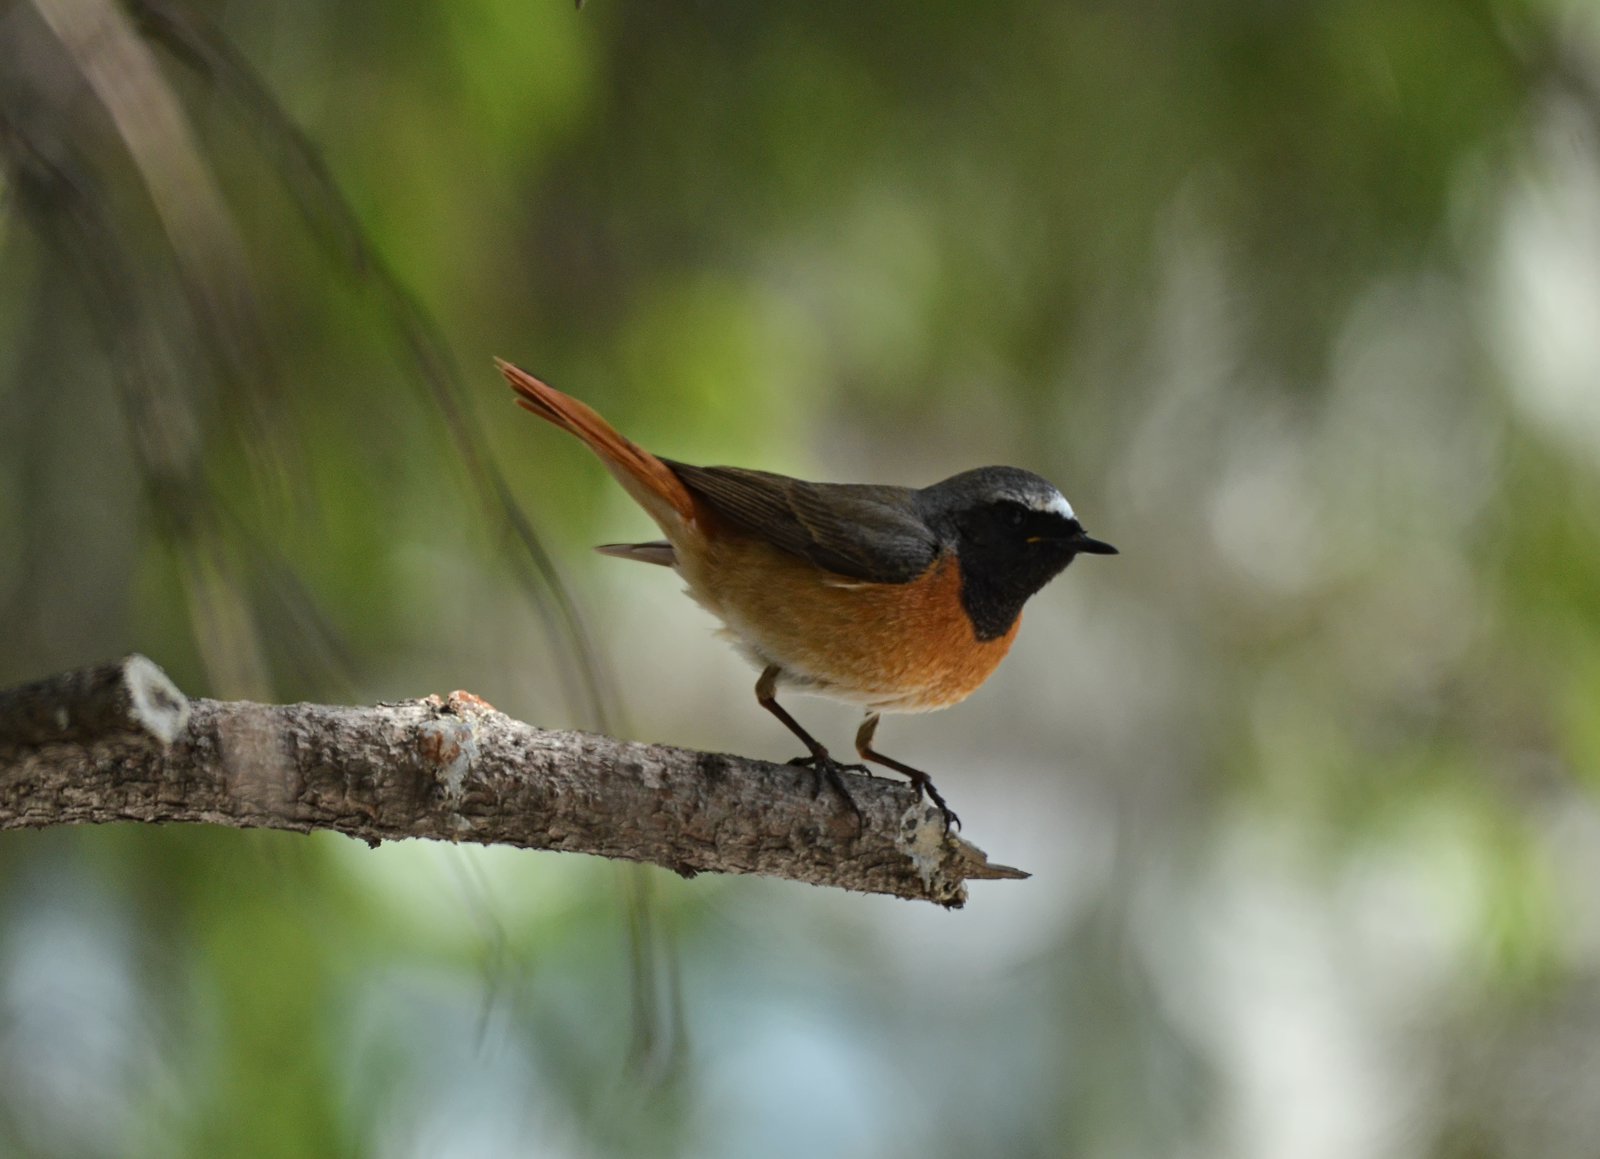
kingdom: Animalia
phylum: Chordata
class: Aves
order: Passeriformes
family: Muscicapidae
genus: Phoenicurus
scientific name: Phoenicurus phoenicurus
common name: Common redstart
